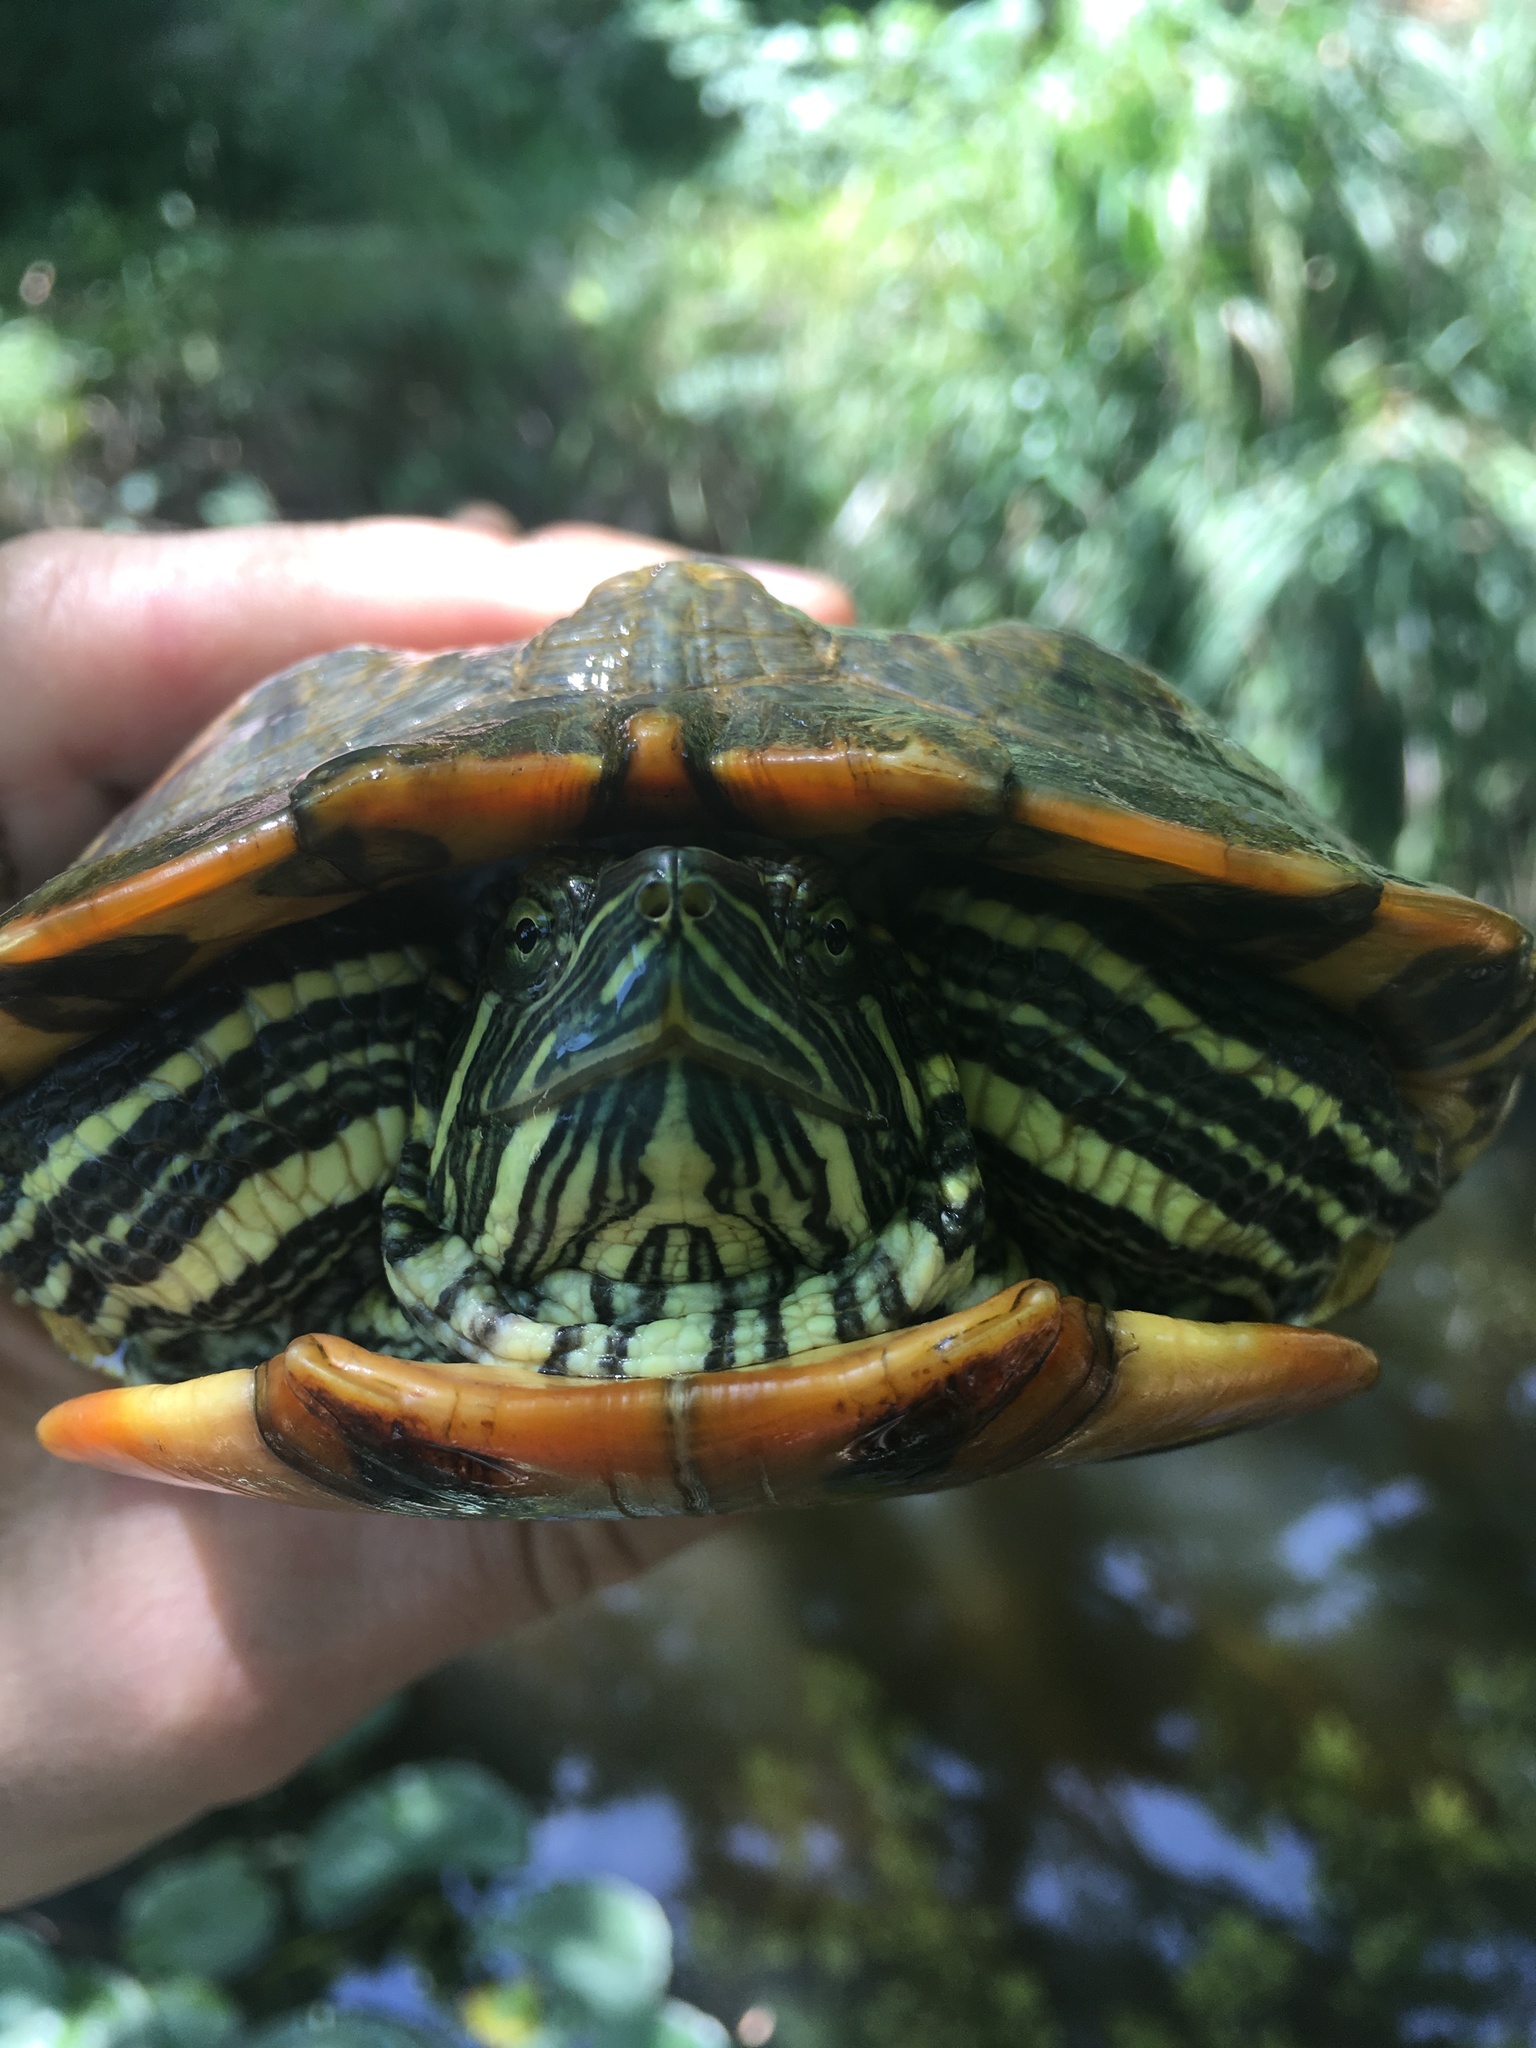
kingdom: Animalia
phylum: Chordata
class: Testudines
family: Emydidae
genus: Trachemys
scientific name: Trachemys scripta
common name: Slider
